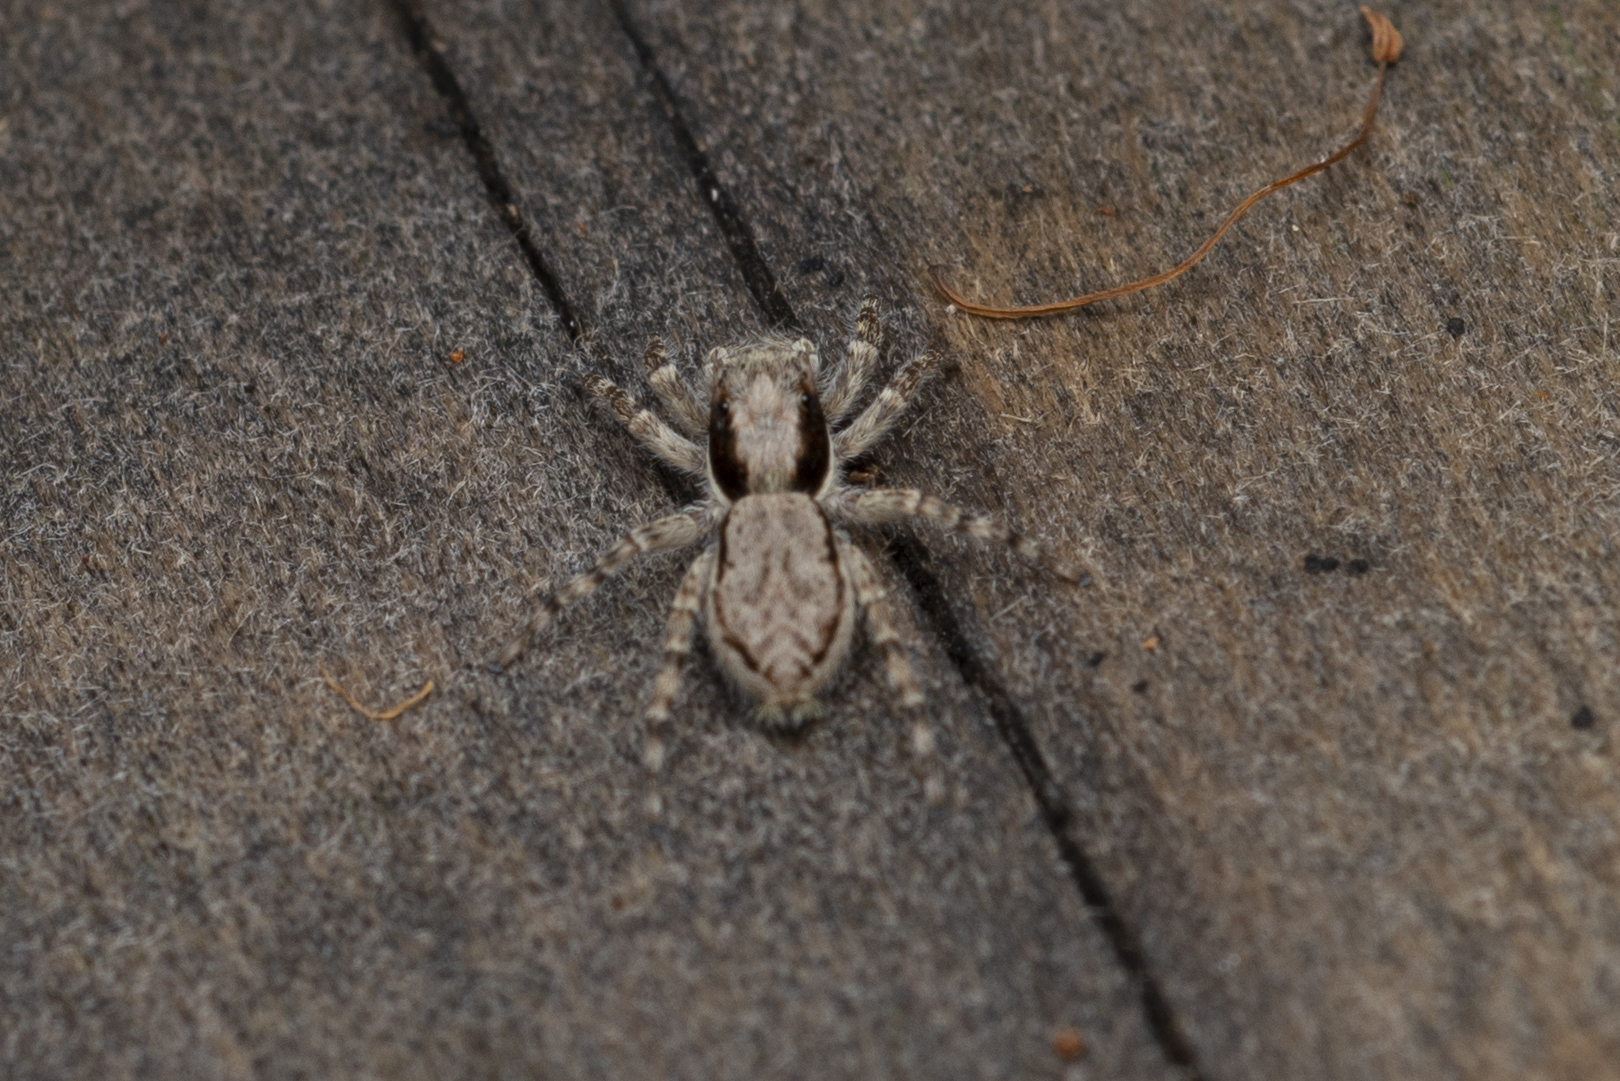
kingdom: Animalia
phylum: Arthropoda
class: Arachnida
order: Araneae
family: Salticidae
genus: Menemerus
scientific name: Menemerus bivittatus
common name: Gray wall jumper
